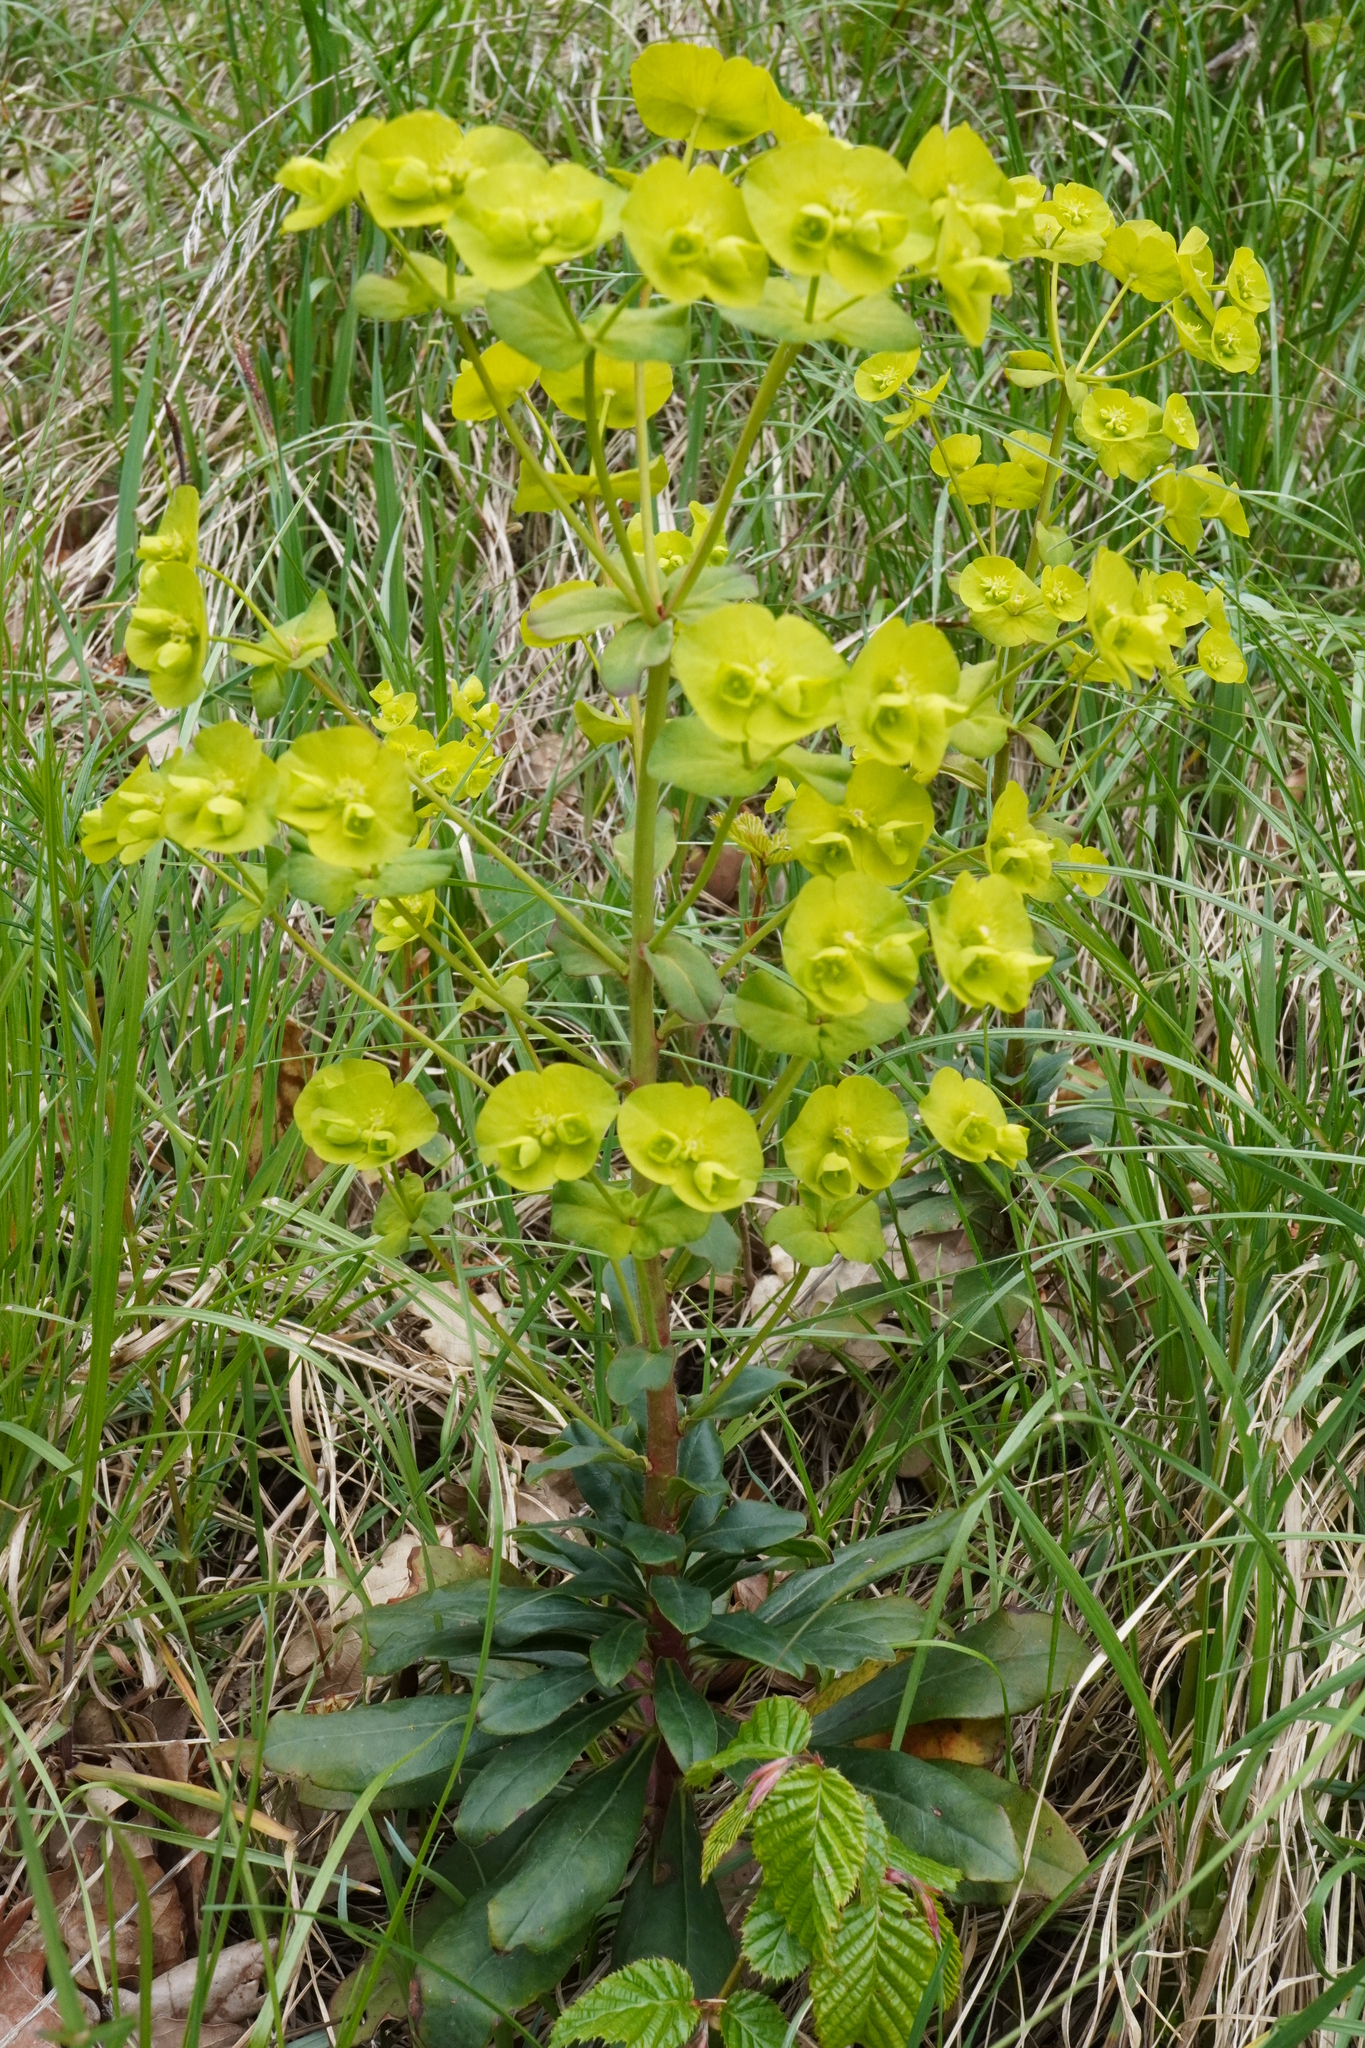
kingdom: Plantae
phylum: Tracheophyta
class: Magnoliopsida
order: Malpighiales
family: Euphorbiaceae
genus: Euphorbia
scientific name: Euphorbia amygdaloides
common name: Wood spurge
